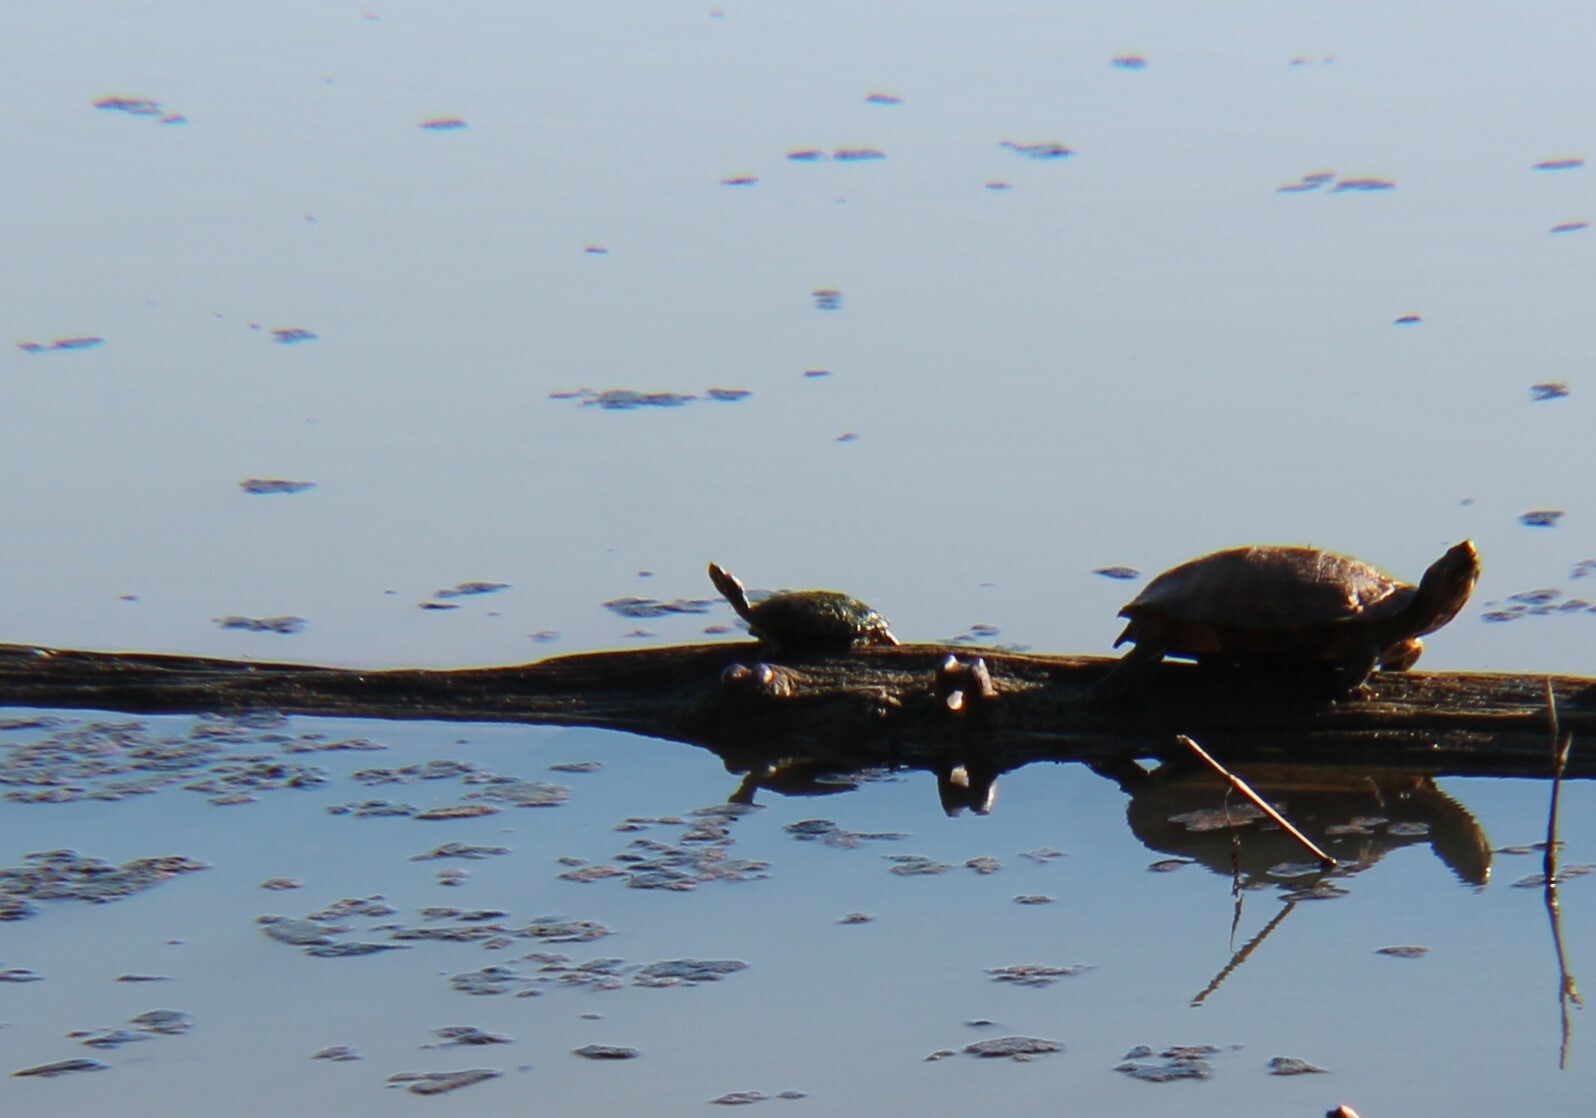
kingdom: Animalia
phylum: Chordata
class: Testudines
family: Emydidae
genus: Trachemys
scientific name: Trachemys scripta
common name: Slider
